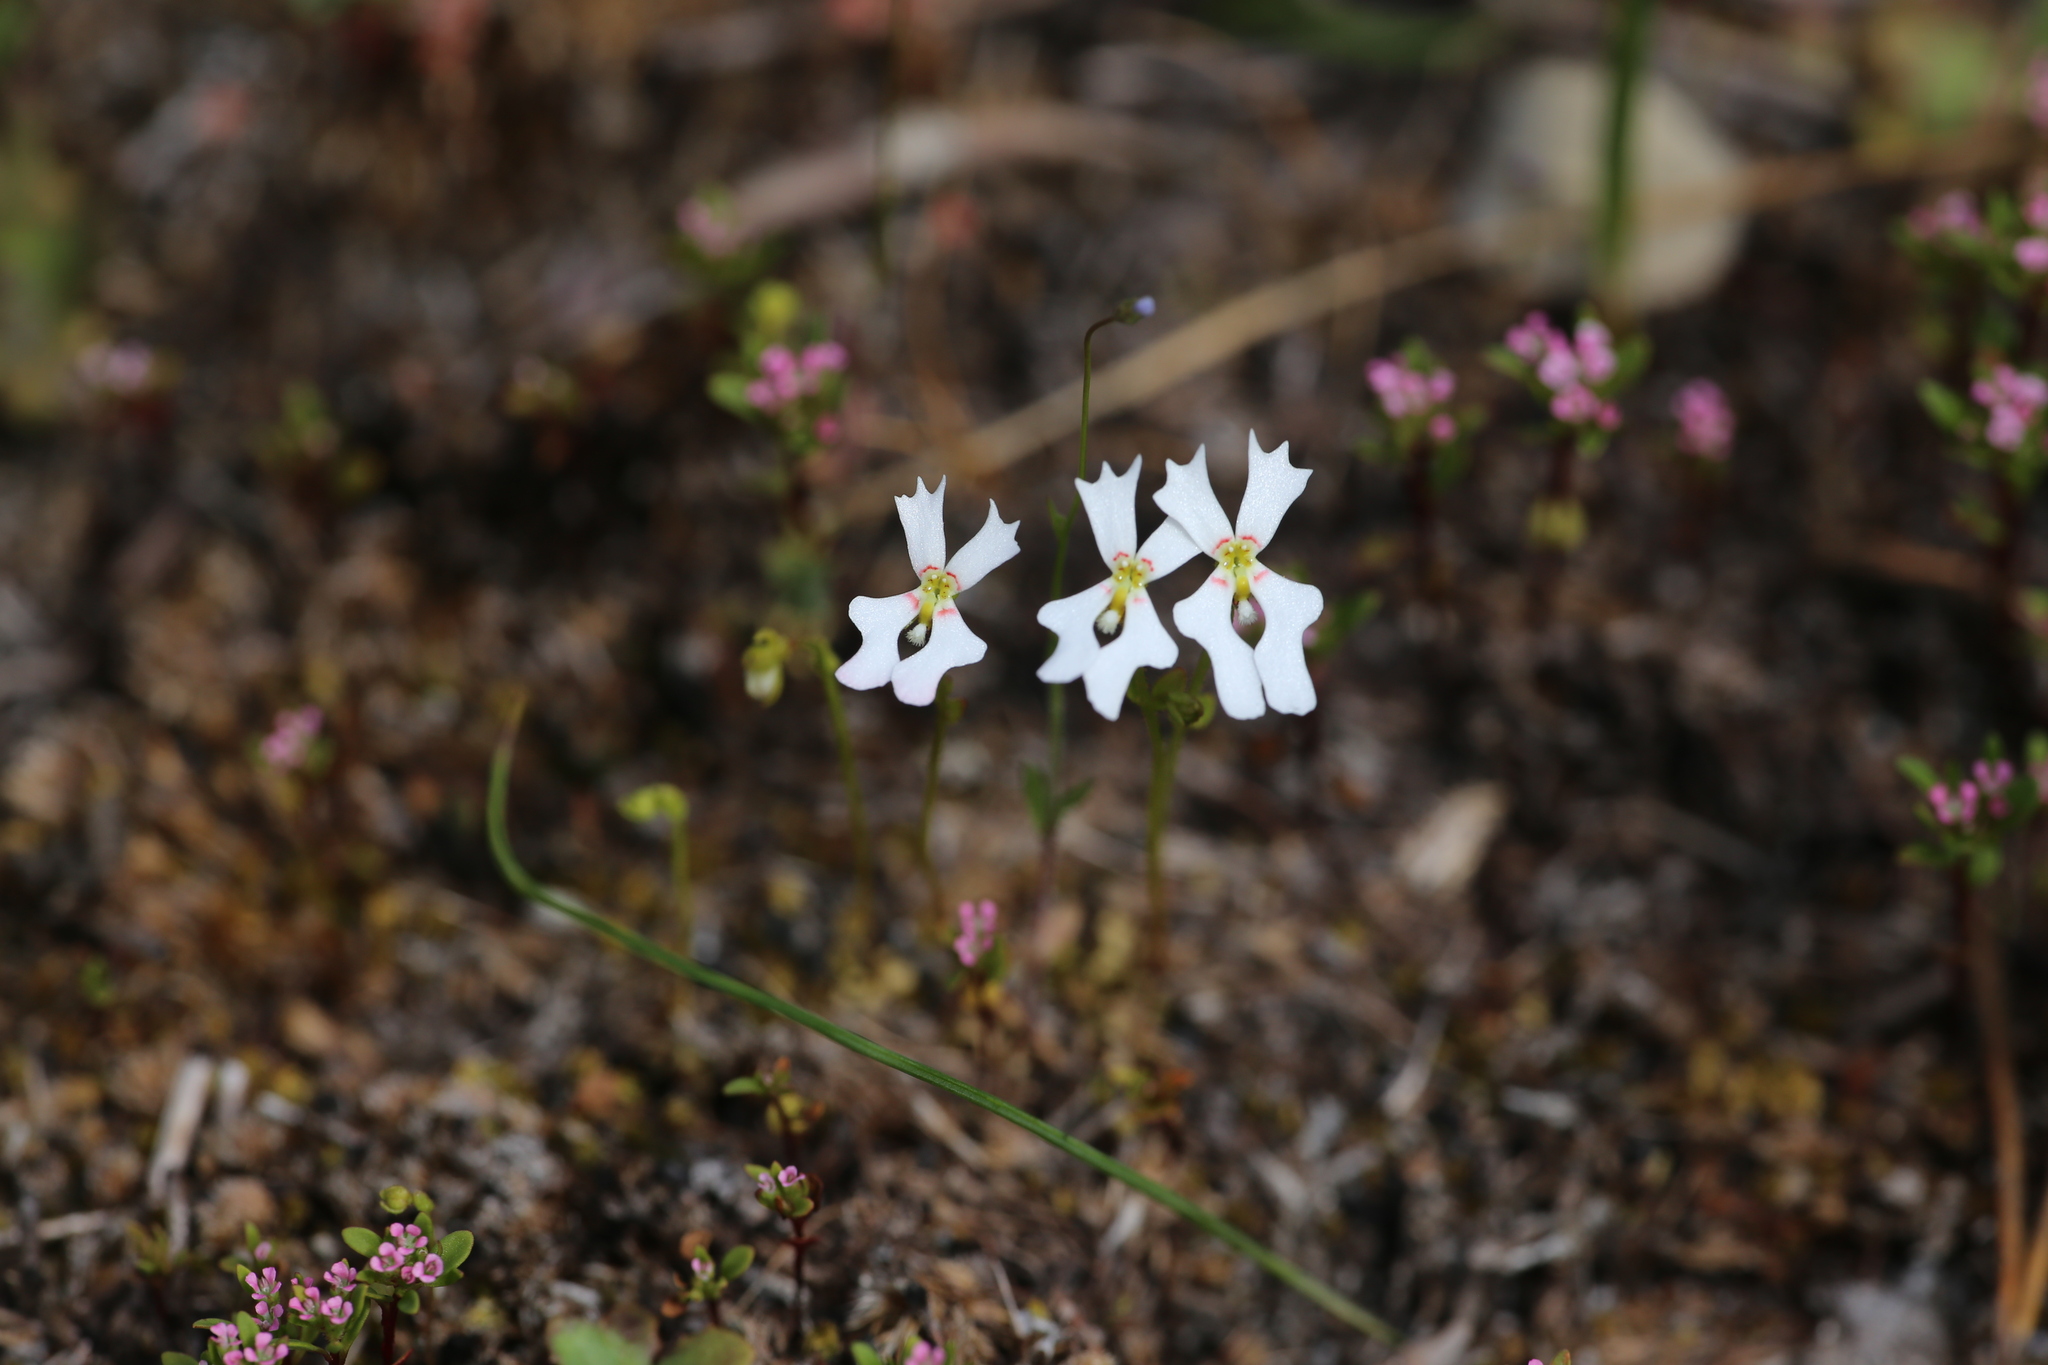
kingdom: Plantae
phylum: Tracheophyta
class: Magnoliopsida
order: Asterales
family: Stylidiaceae
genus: Stylidium
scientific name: Stylidium androsaceum
